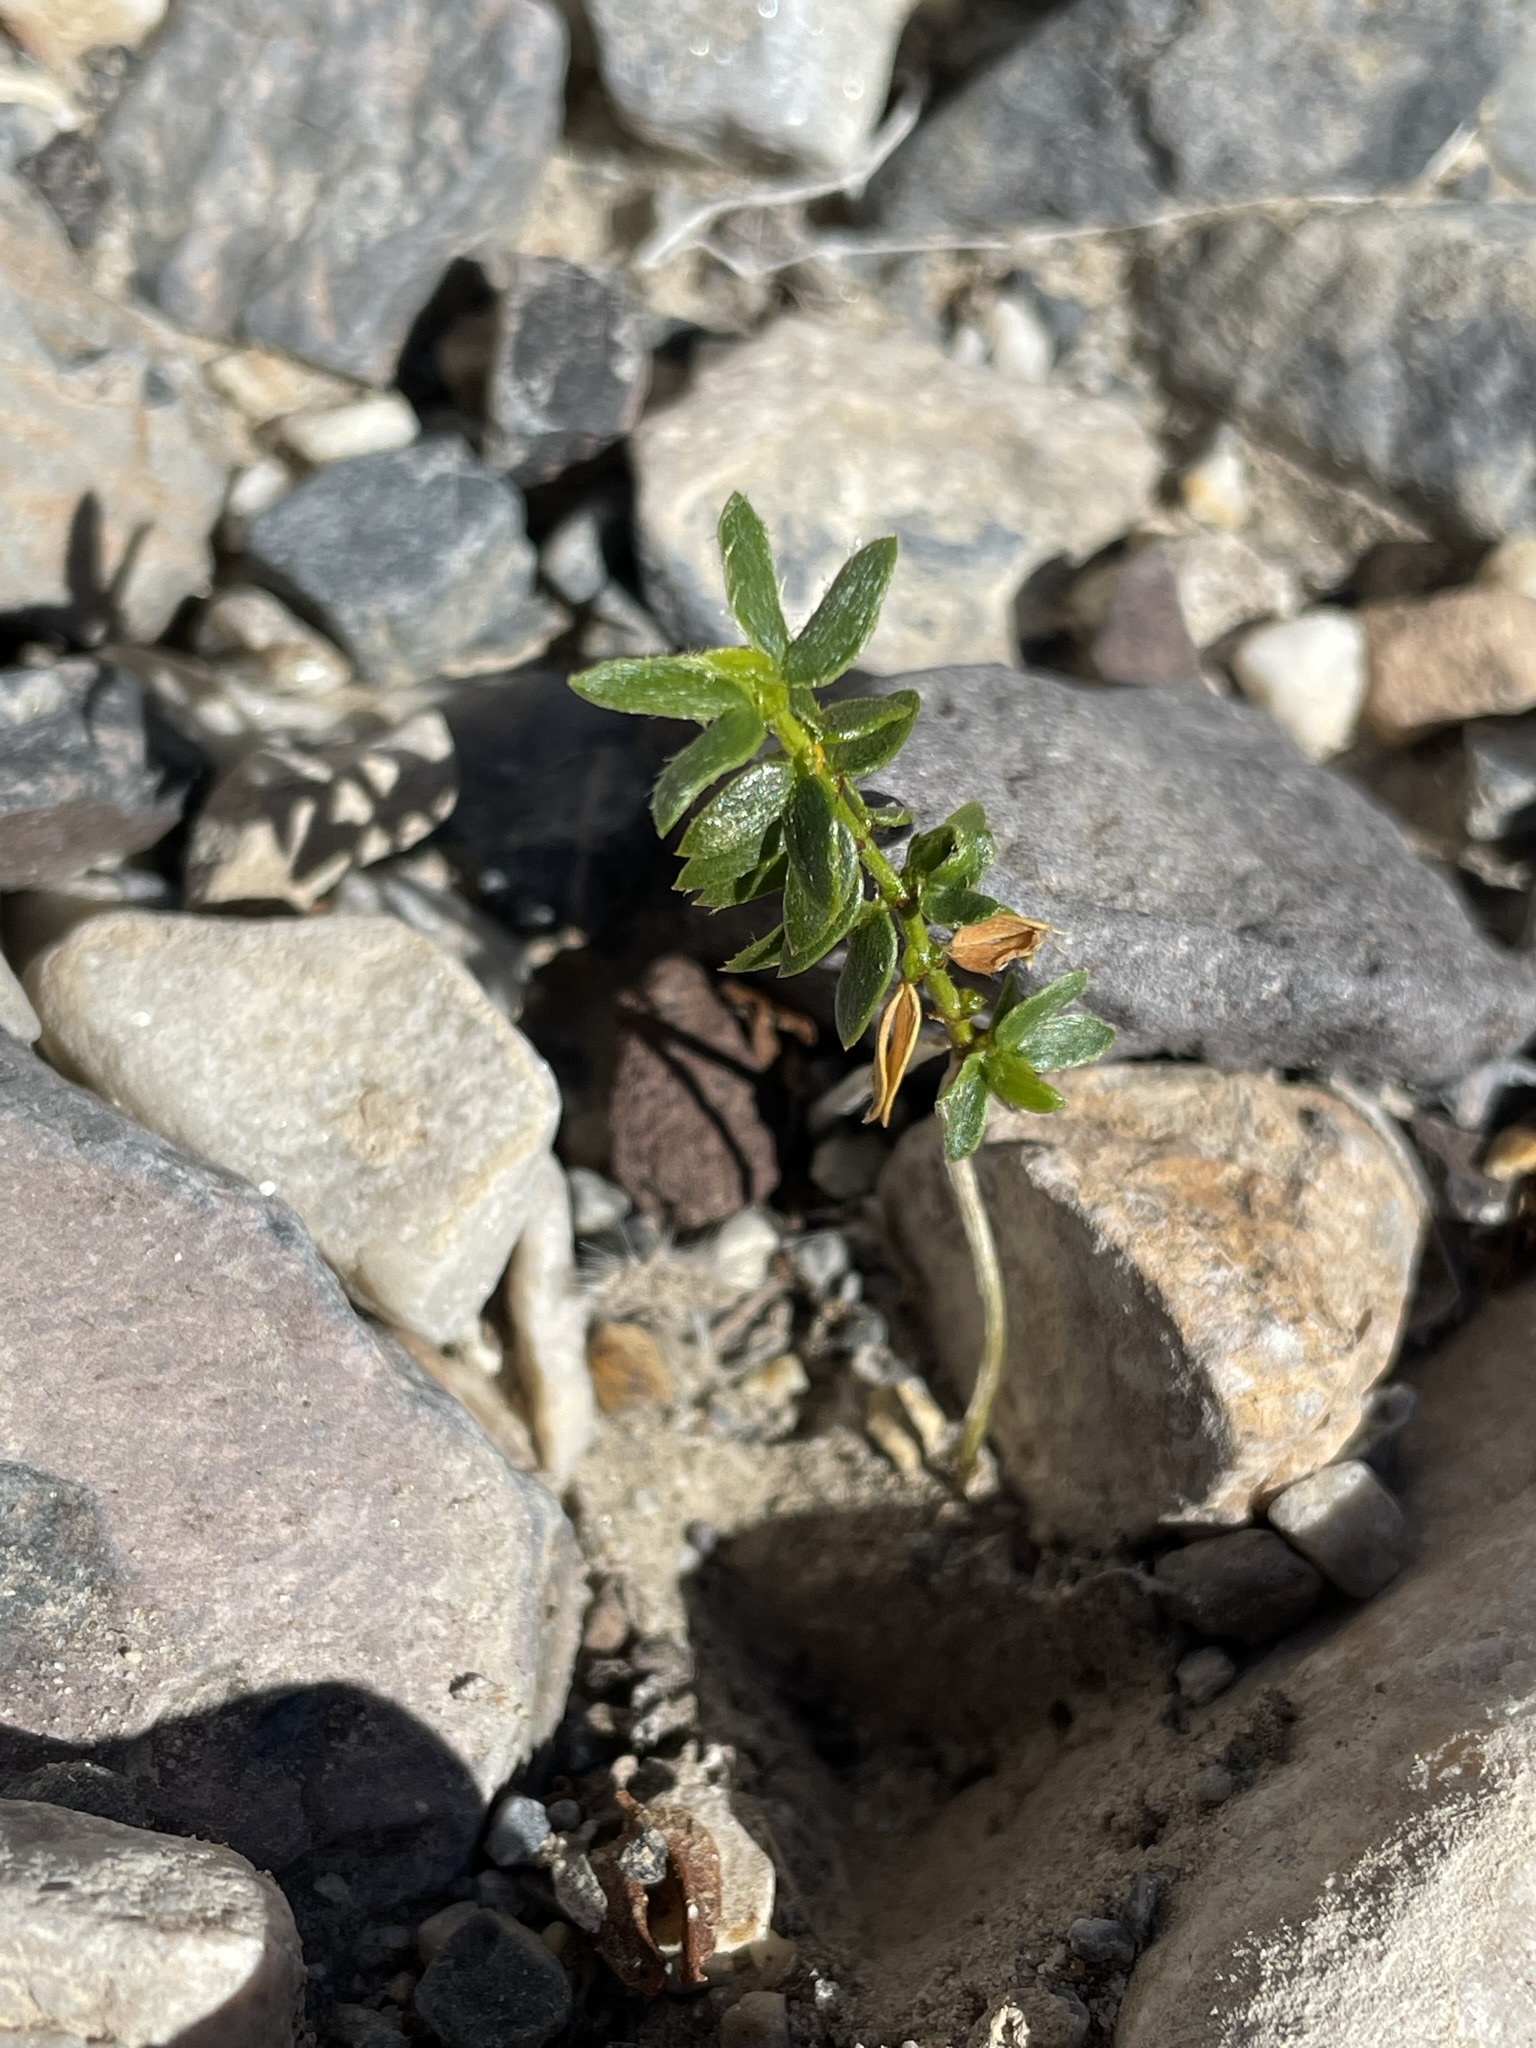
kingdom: Plantae
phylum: Tracheophyta
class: Magnoliopsida
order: Zygophyllales
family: Zygophyllaceae
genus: Larrea
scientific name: Larrea tridentata
